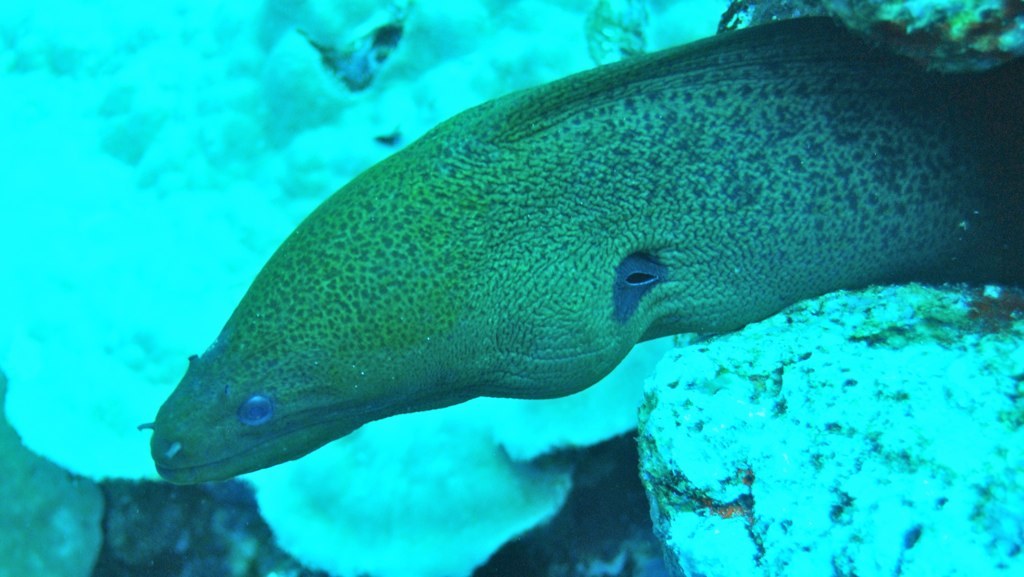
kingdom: Animalia
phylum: Chordata
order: Anguilliformes
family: Muraenidae
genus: Gymnothorax
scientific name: Gymnothorax javanicus
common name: Giant moray
